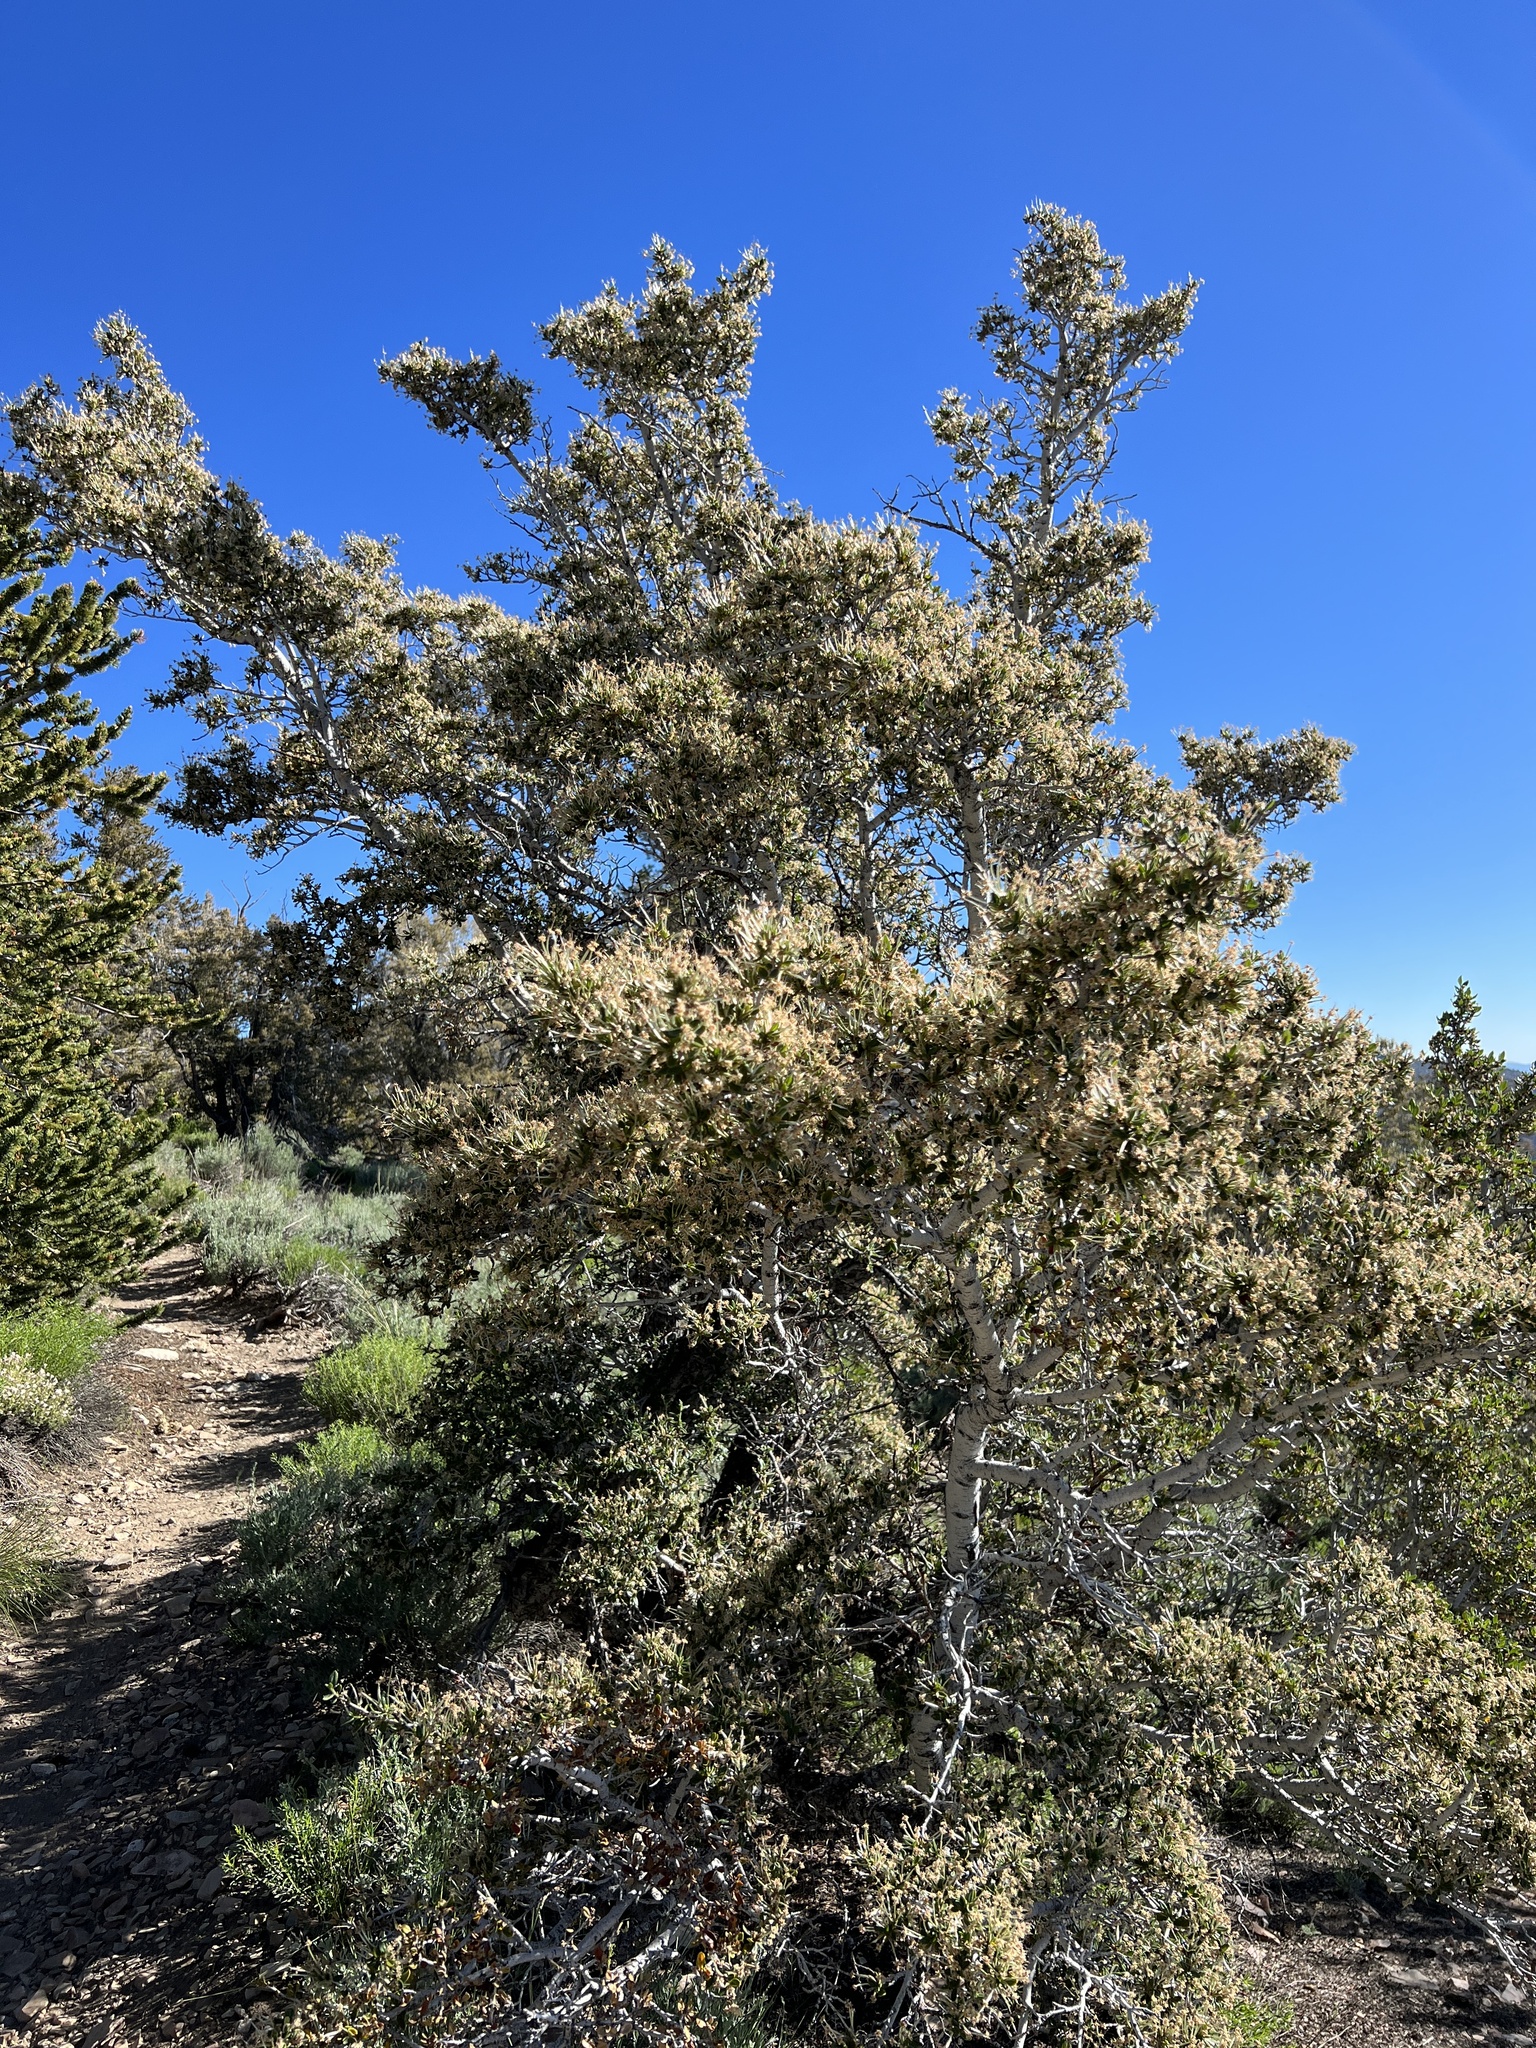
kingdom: Plantae
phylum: Tracheophyta
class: Magnoliopsida
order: Rosales
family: Rosaceae
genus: Cercocarpus
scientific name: Cercocarpus ledifolius
